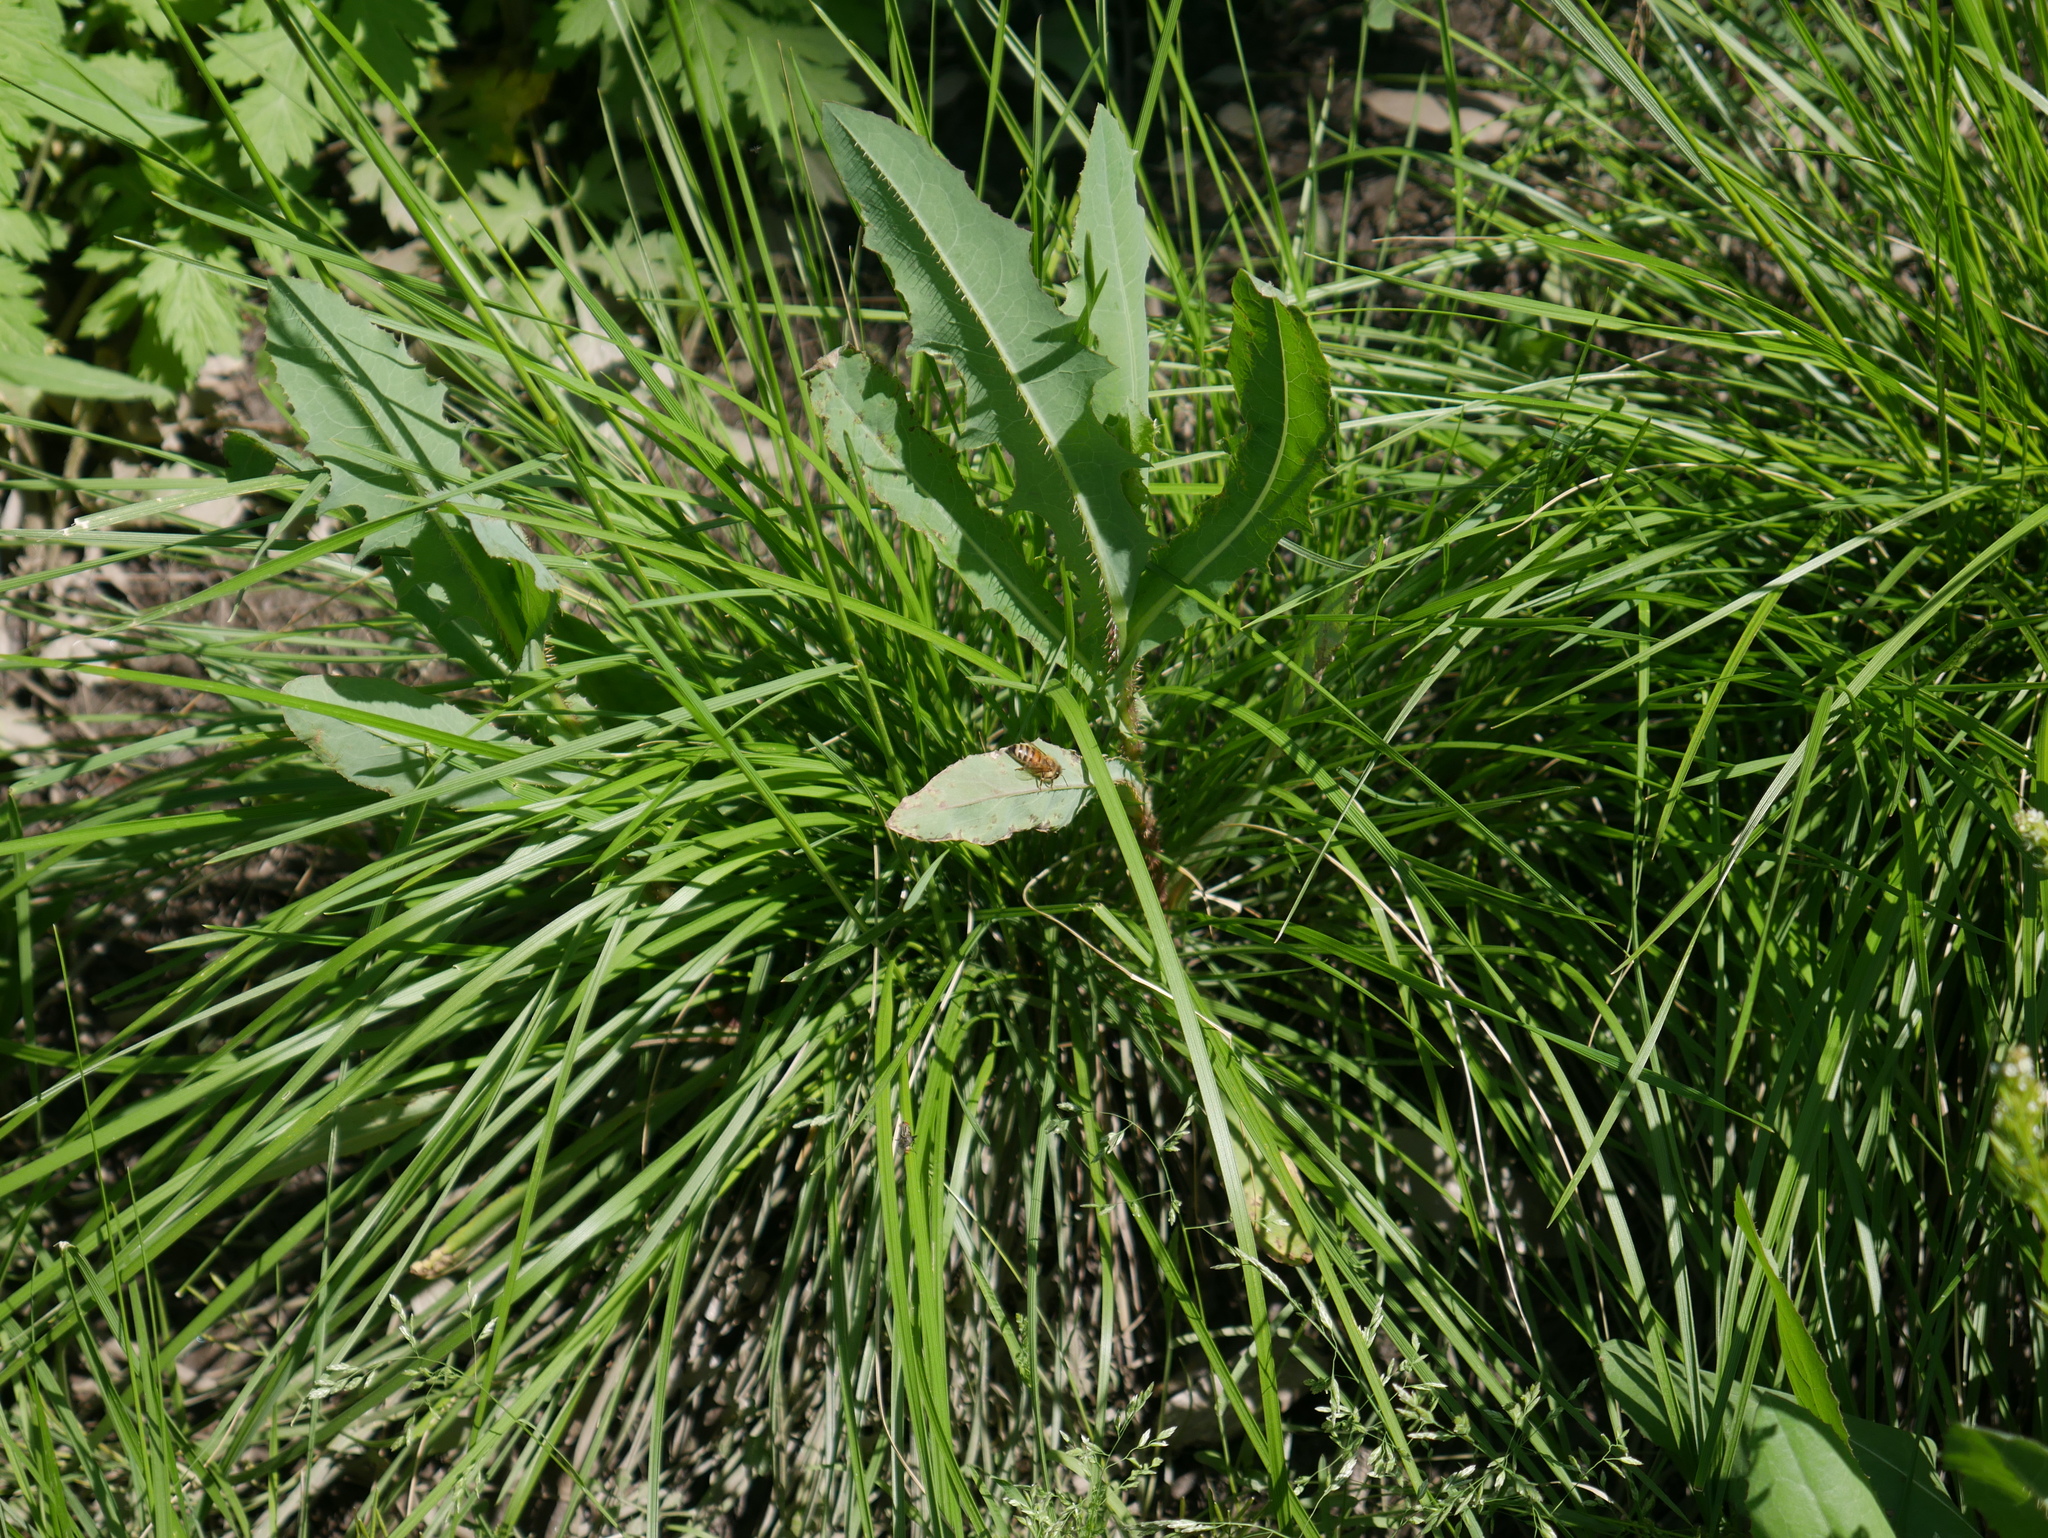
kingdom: Animalia
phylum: Arthropoda
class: Insecta
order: Hymenoptera
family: Apidae
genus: Apis
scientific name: Apis mellifera
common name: Honey bee
